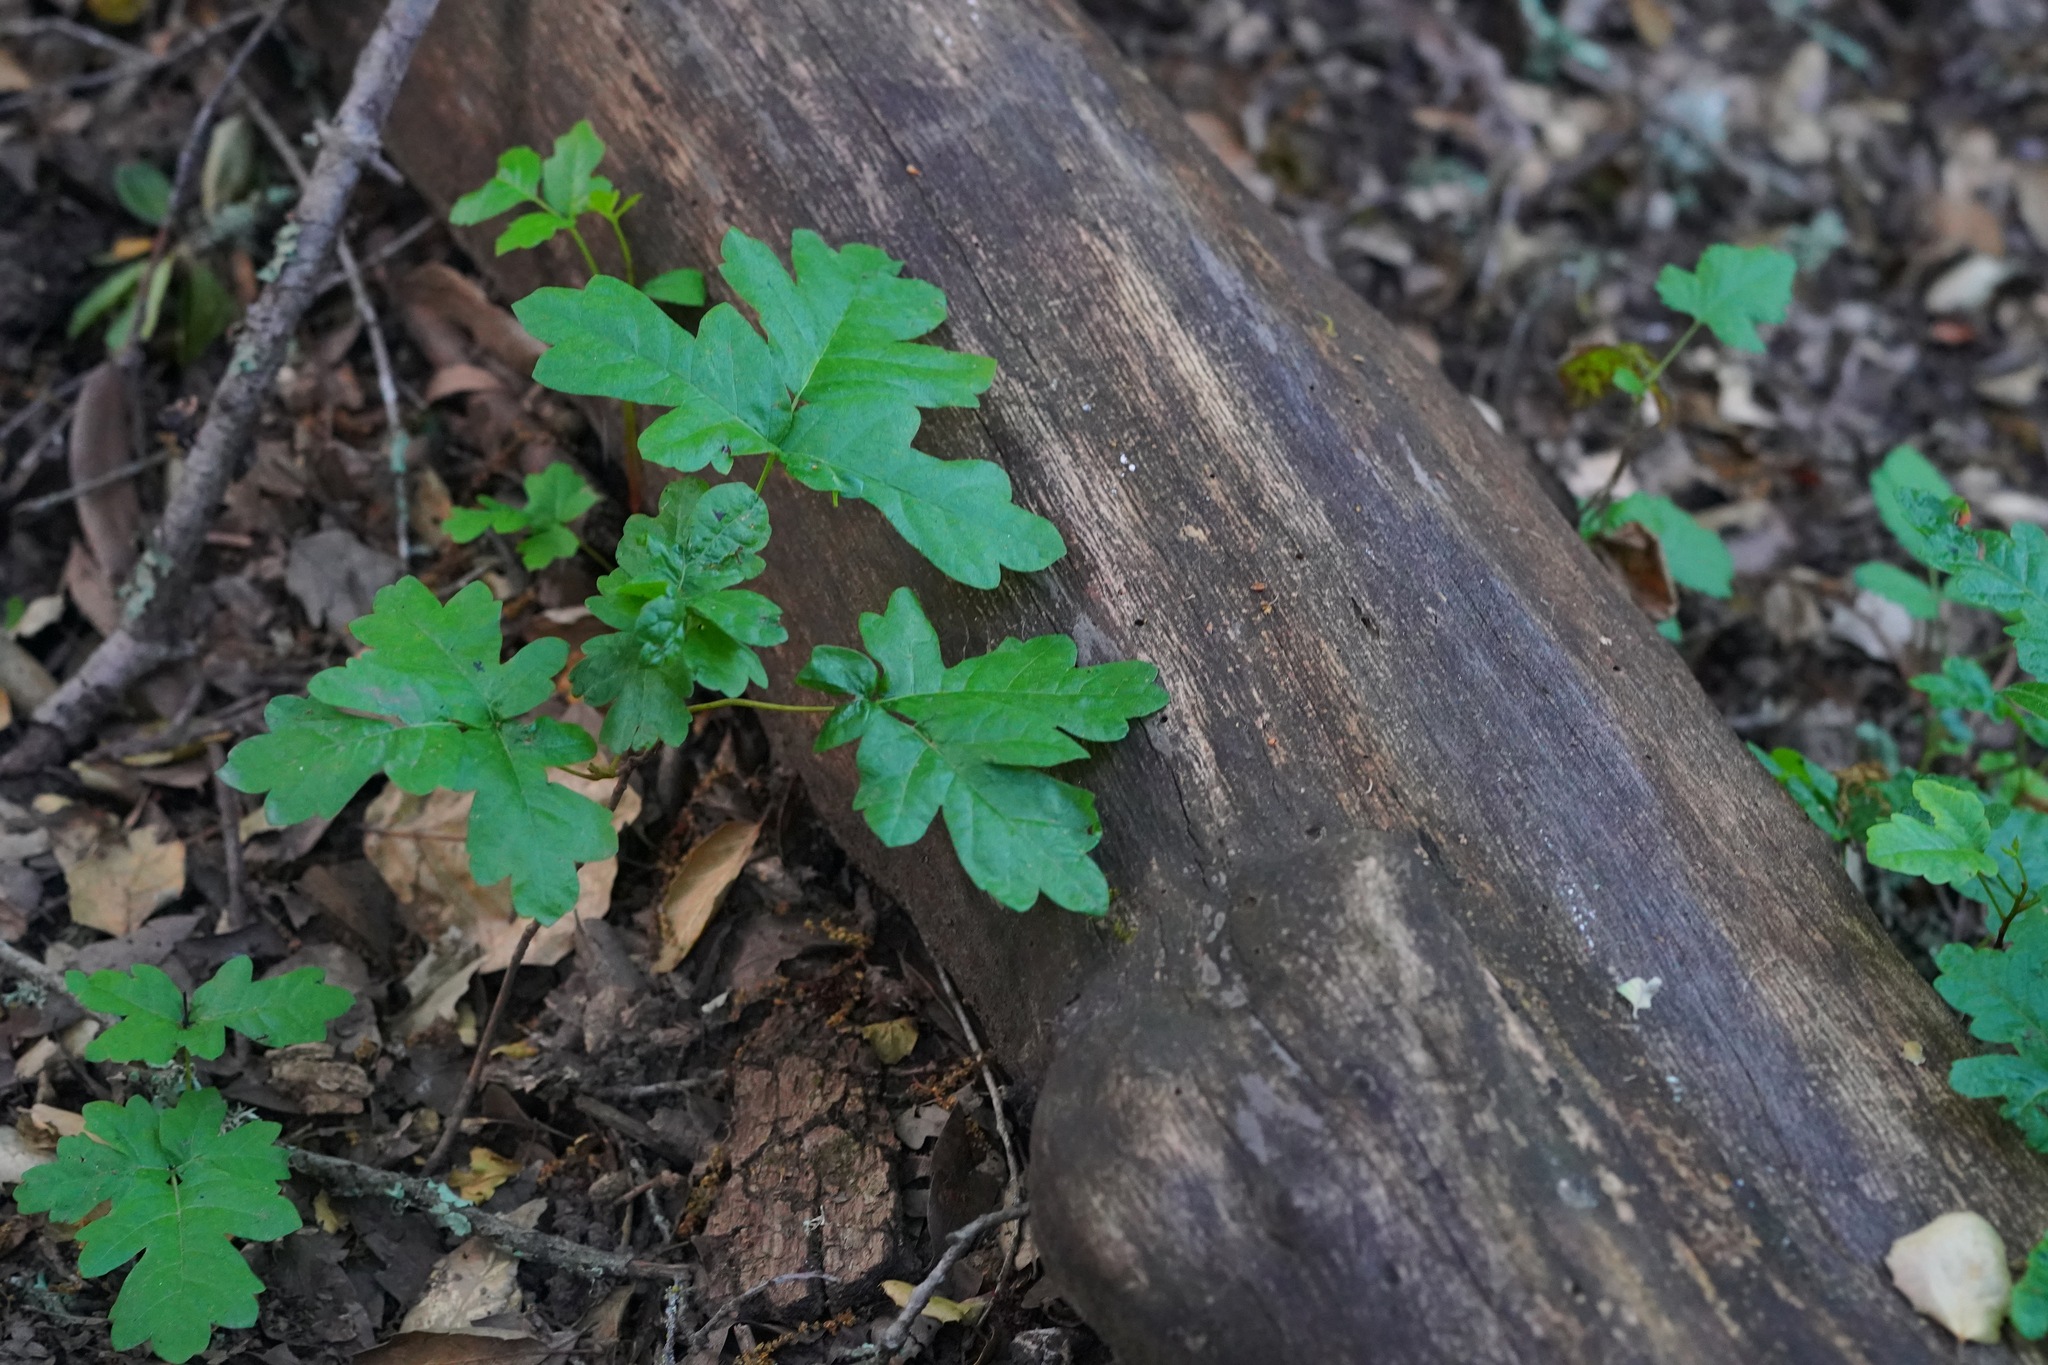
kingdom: Plantae
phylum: Tracheophyta
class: Magnoliopsida
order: Sapindales
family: Anacardiaceae
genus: Toxicodendron
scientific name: Toxicodendron diversilobum
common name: Pacific poison-oak
